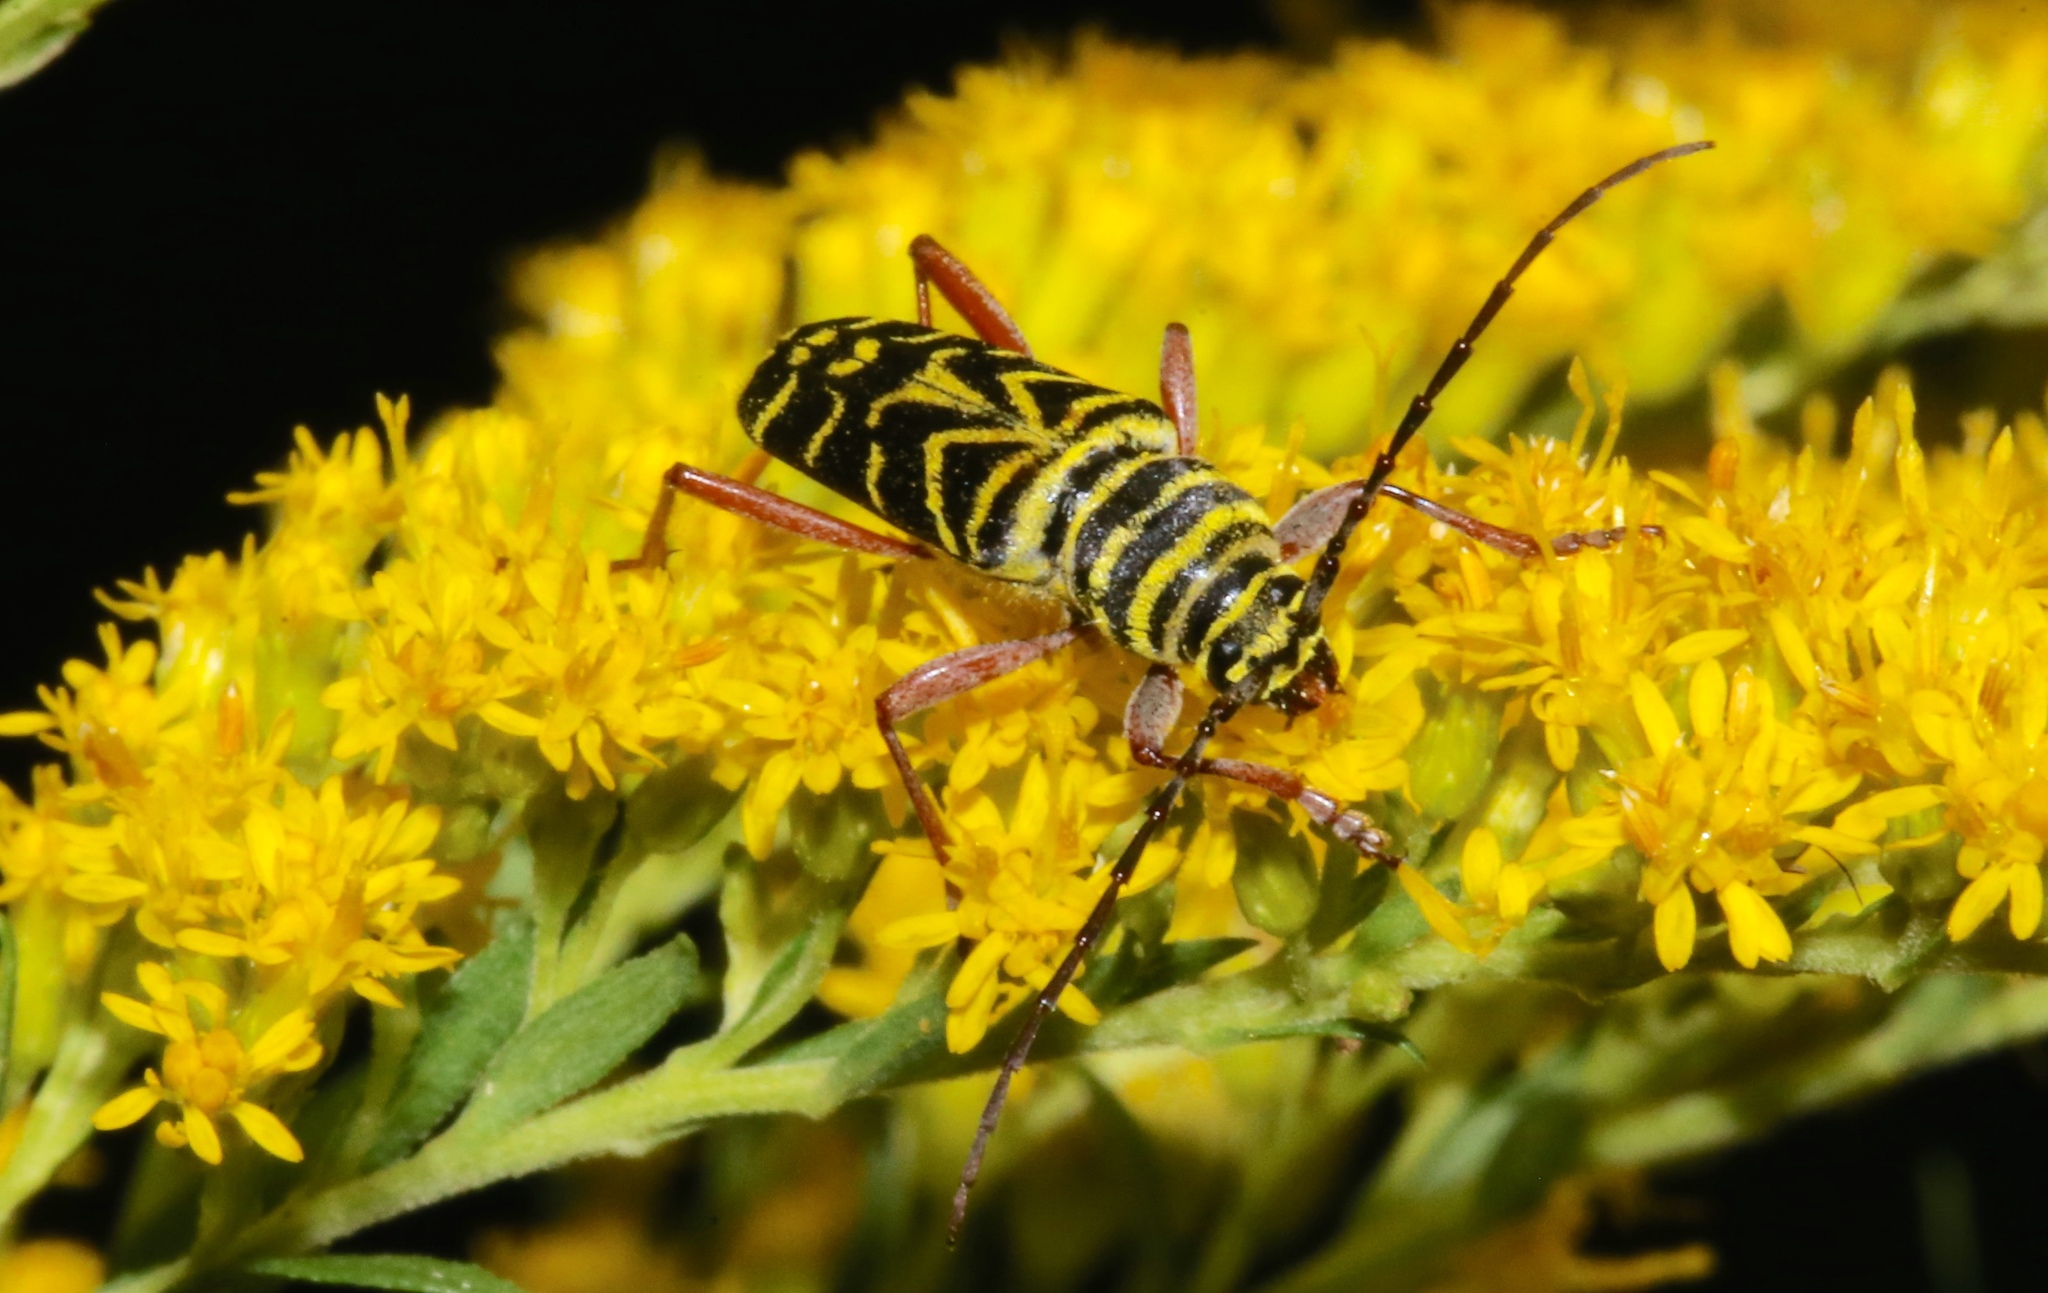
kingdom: Animalia
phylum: Arthropoda
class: Insecta
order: Coleoptera
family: Cerambycidae
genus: Megacyllene
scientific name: Megacyllene robiniae
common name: Locust borer
